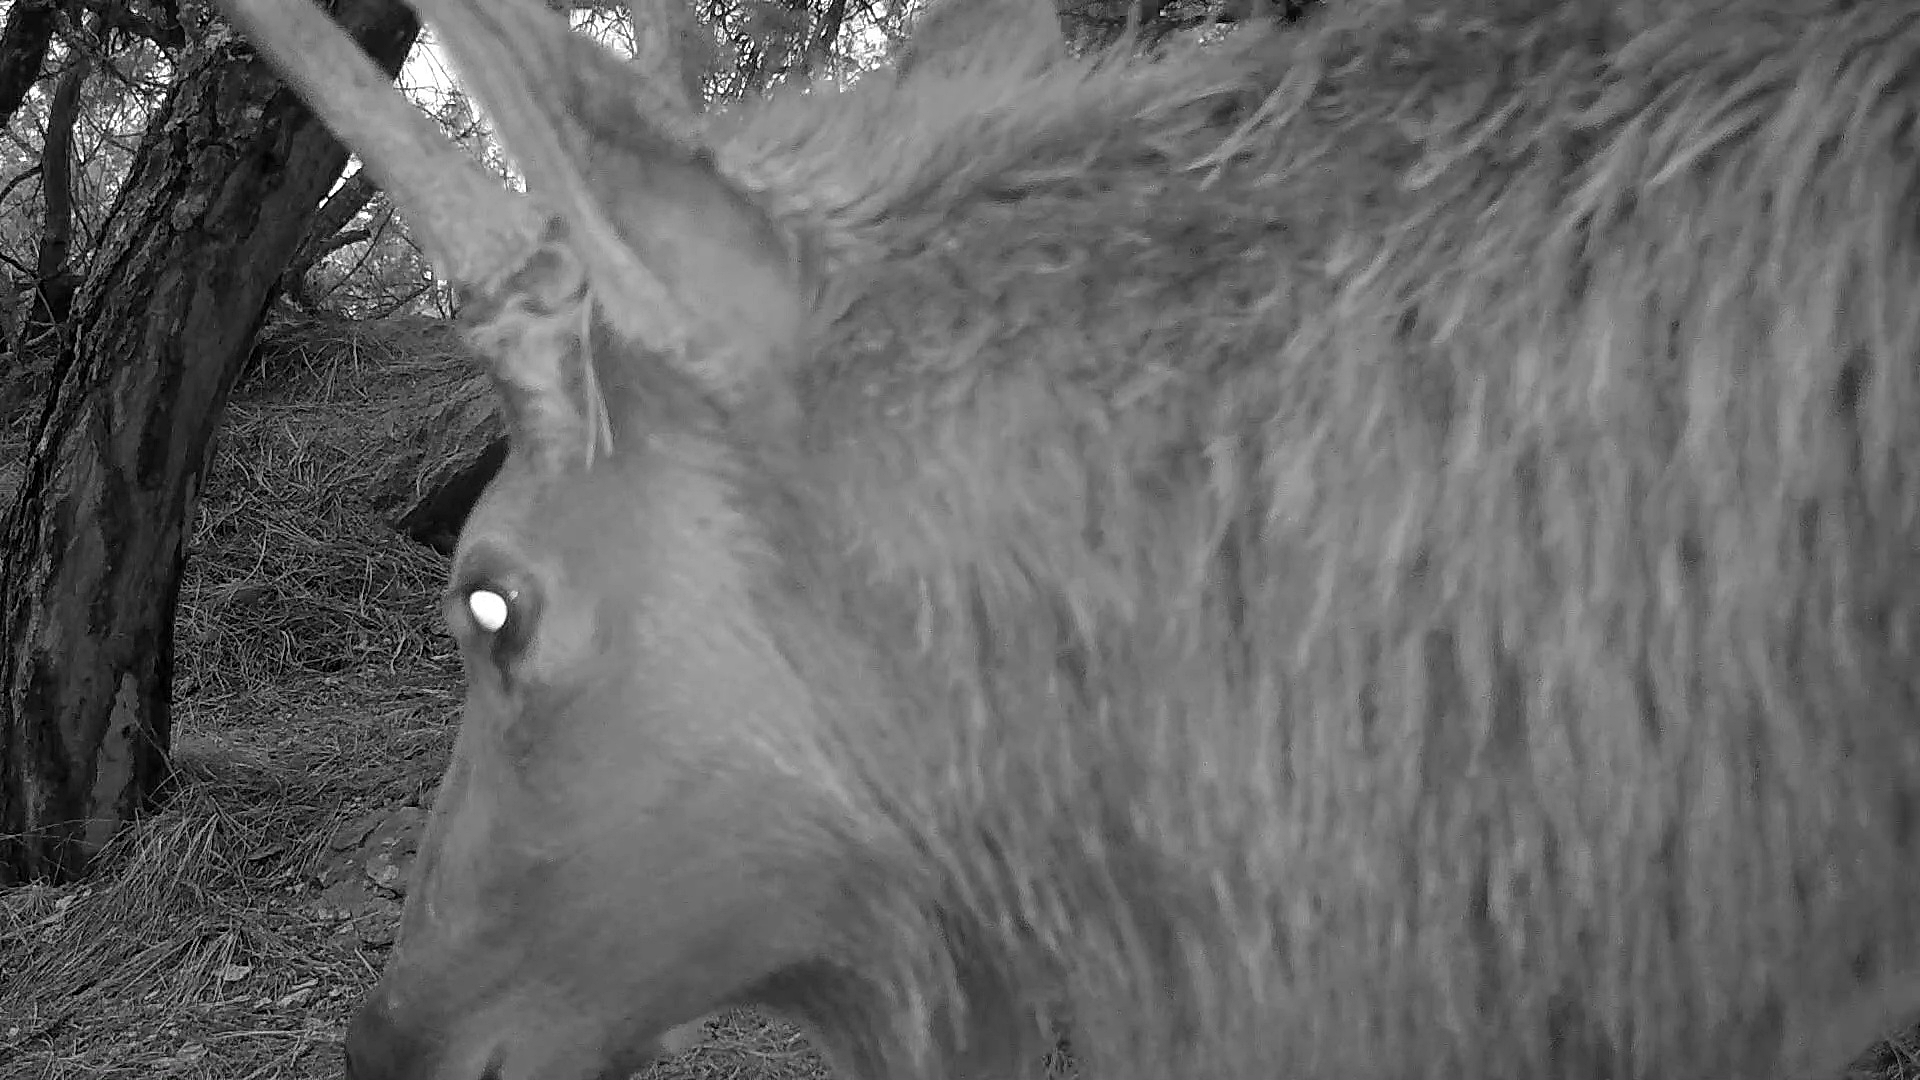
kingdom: Animalia
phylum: Chordata
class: Mammalia
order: Artiodactyla
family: Cervidae
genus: Cervus
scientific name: Cervus elaphus
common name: Red deer
